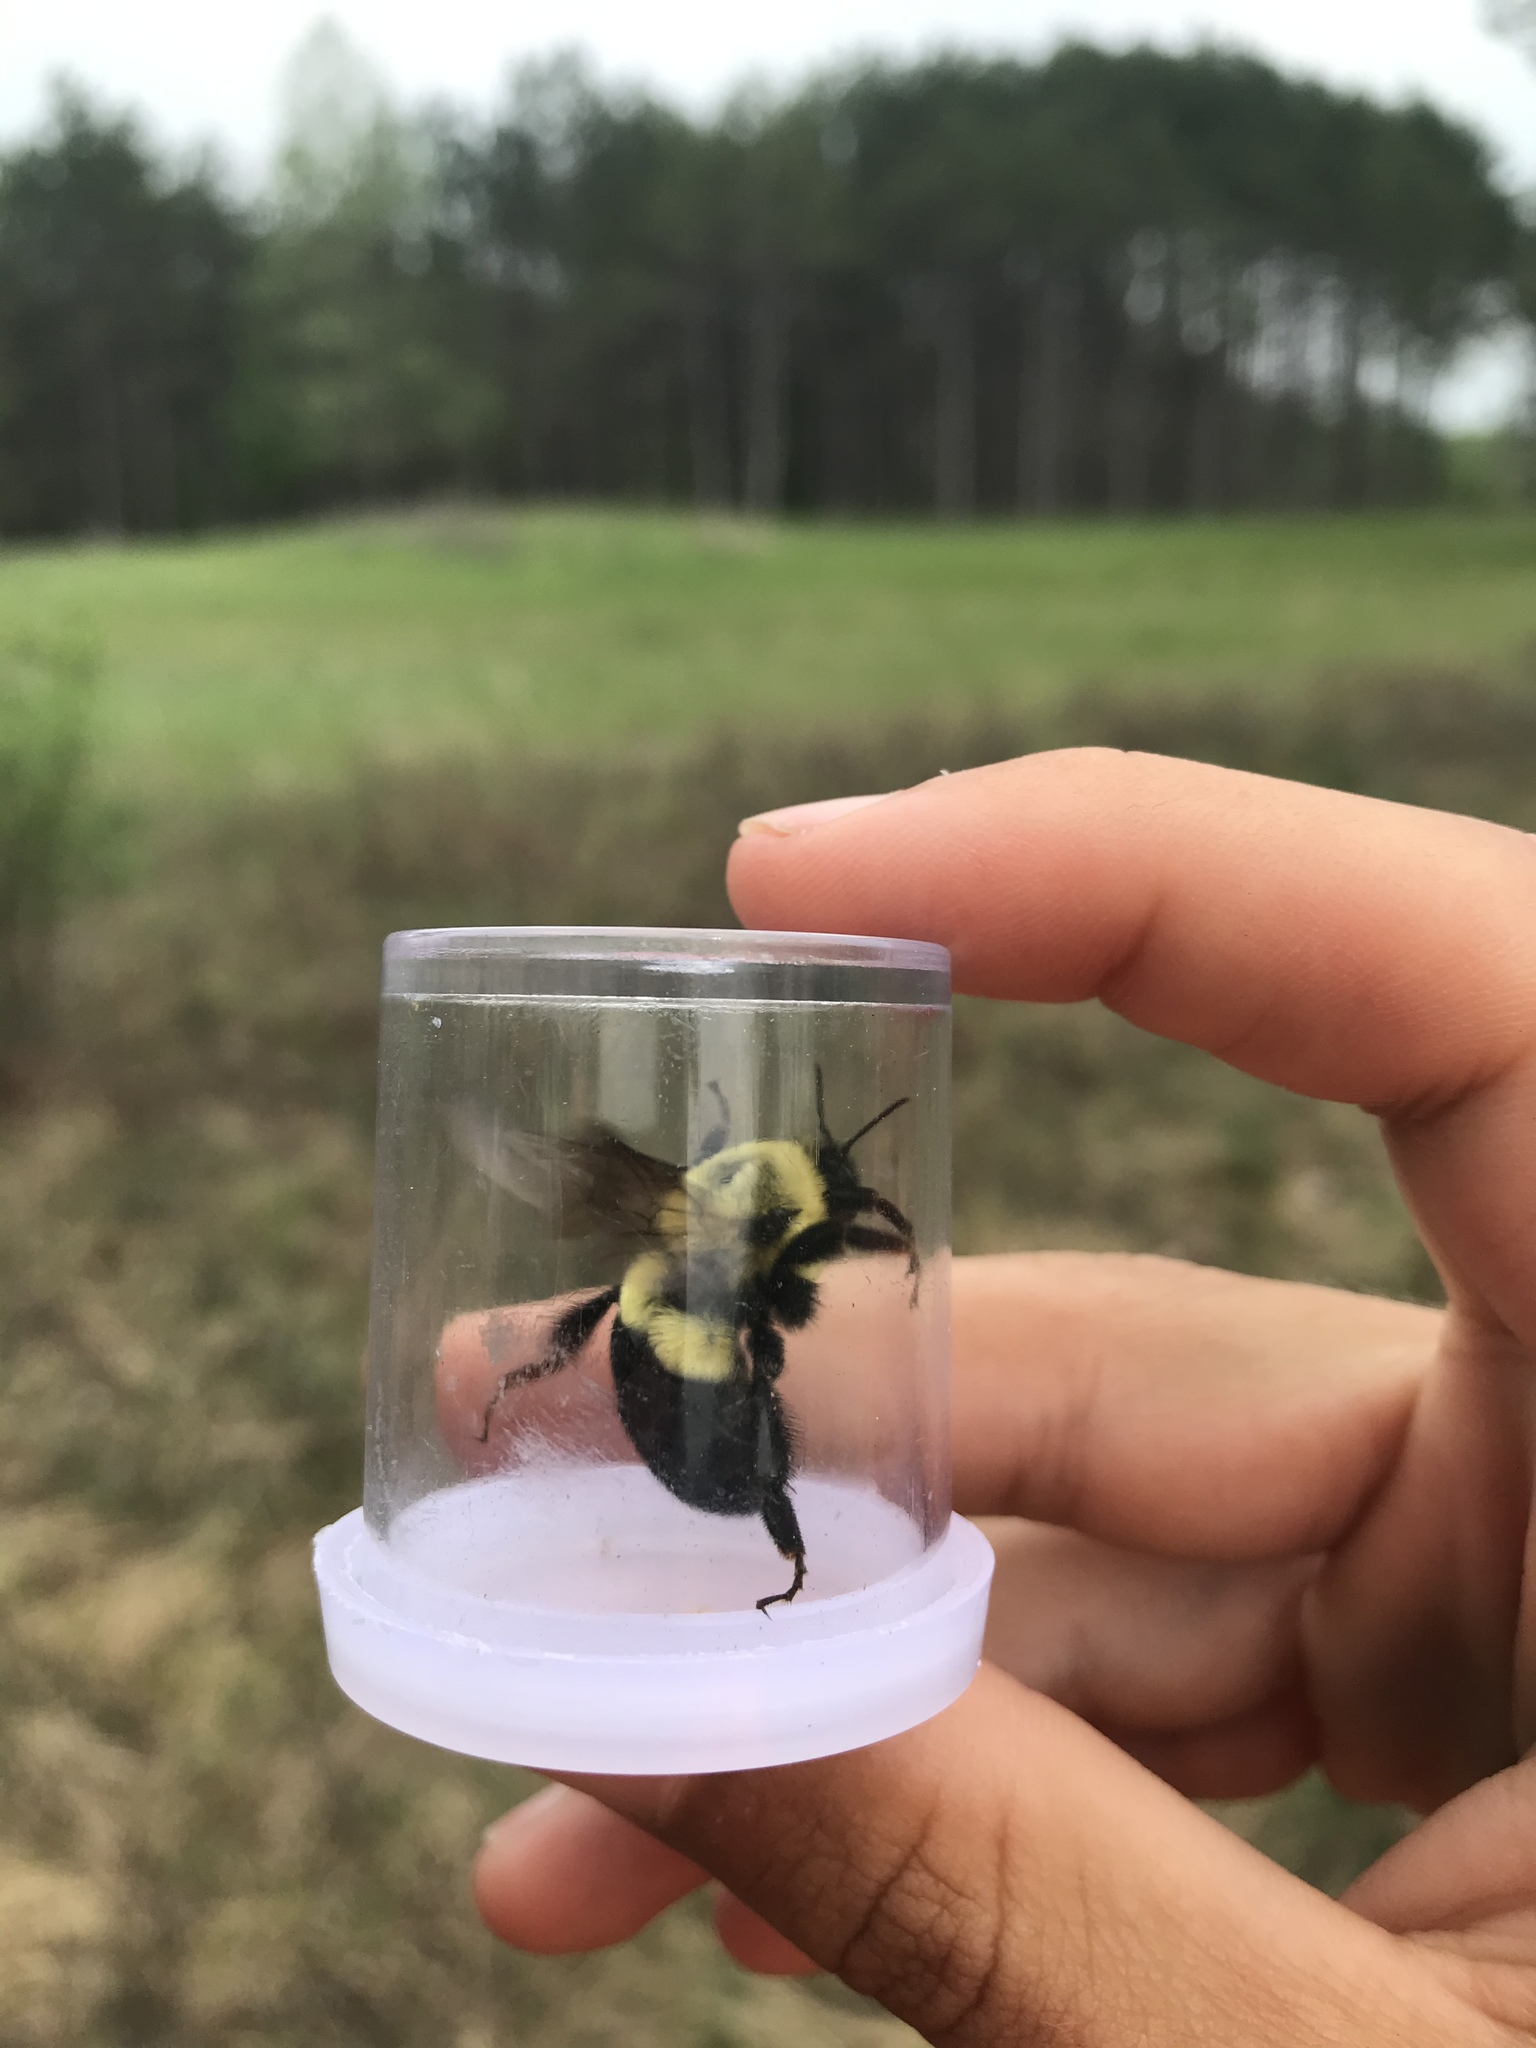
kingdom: Animalia
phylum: Arthropoda
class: Insecta
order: Hymenoptera
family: Apidae
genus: Bombus
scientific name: Bombus impatiens
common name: Common eastern bumble bee
